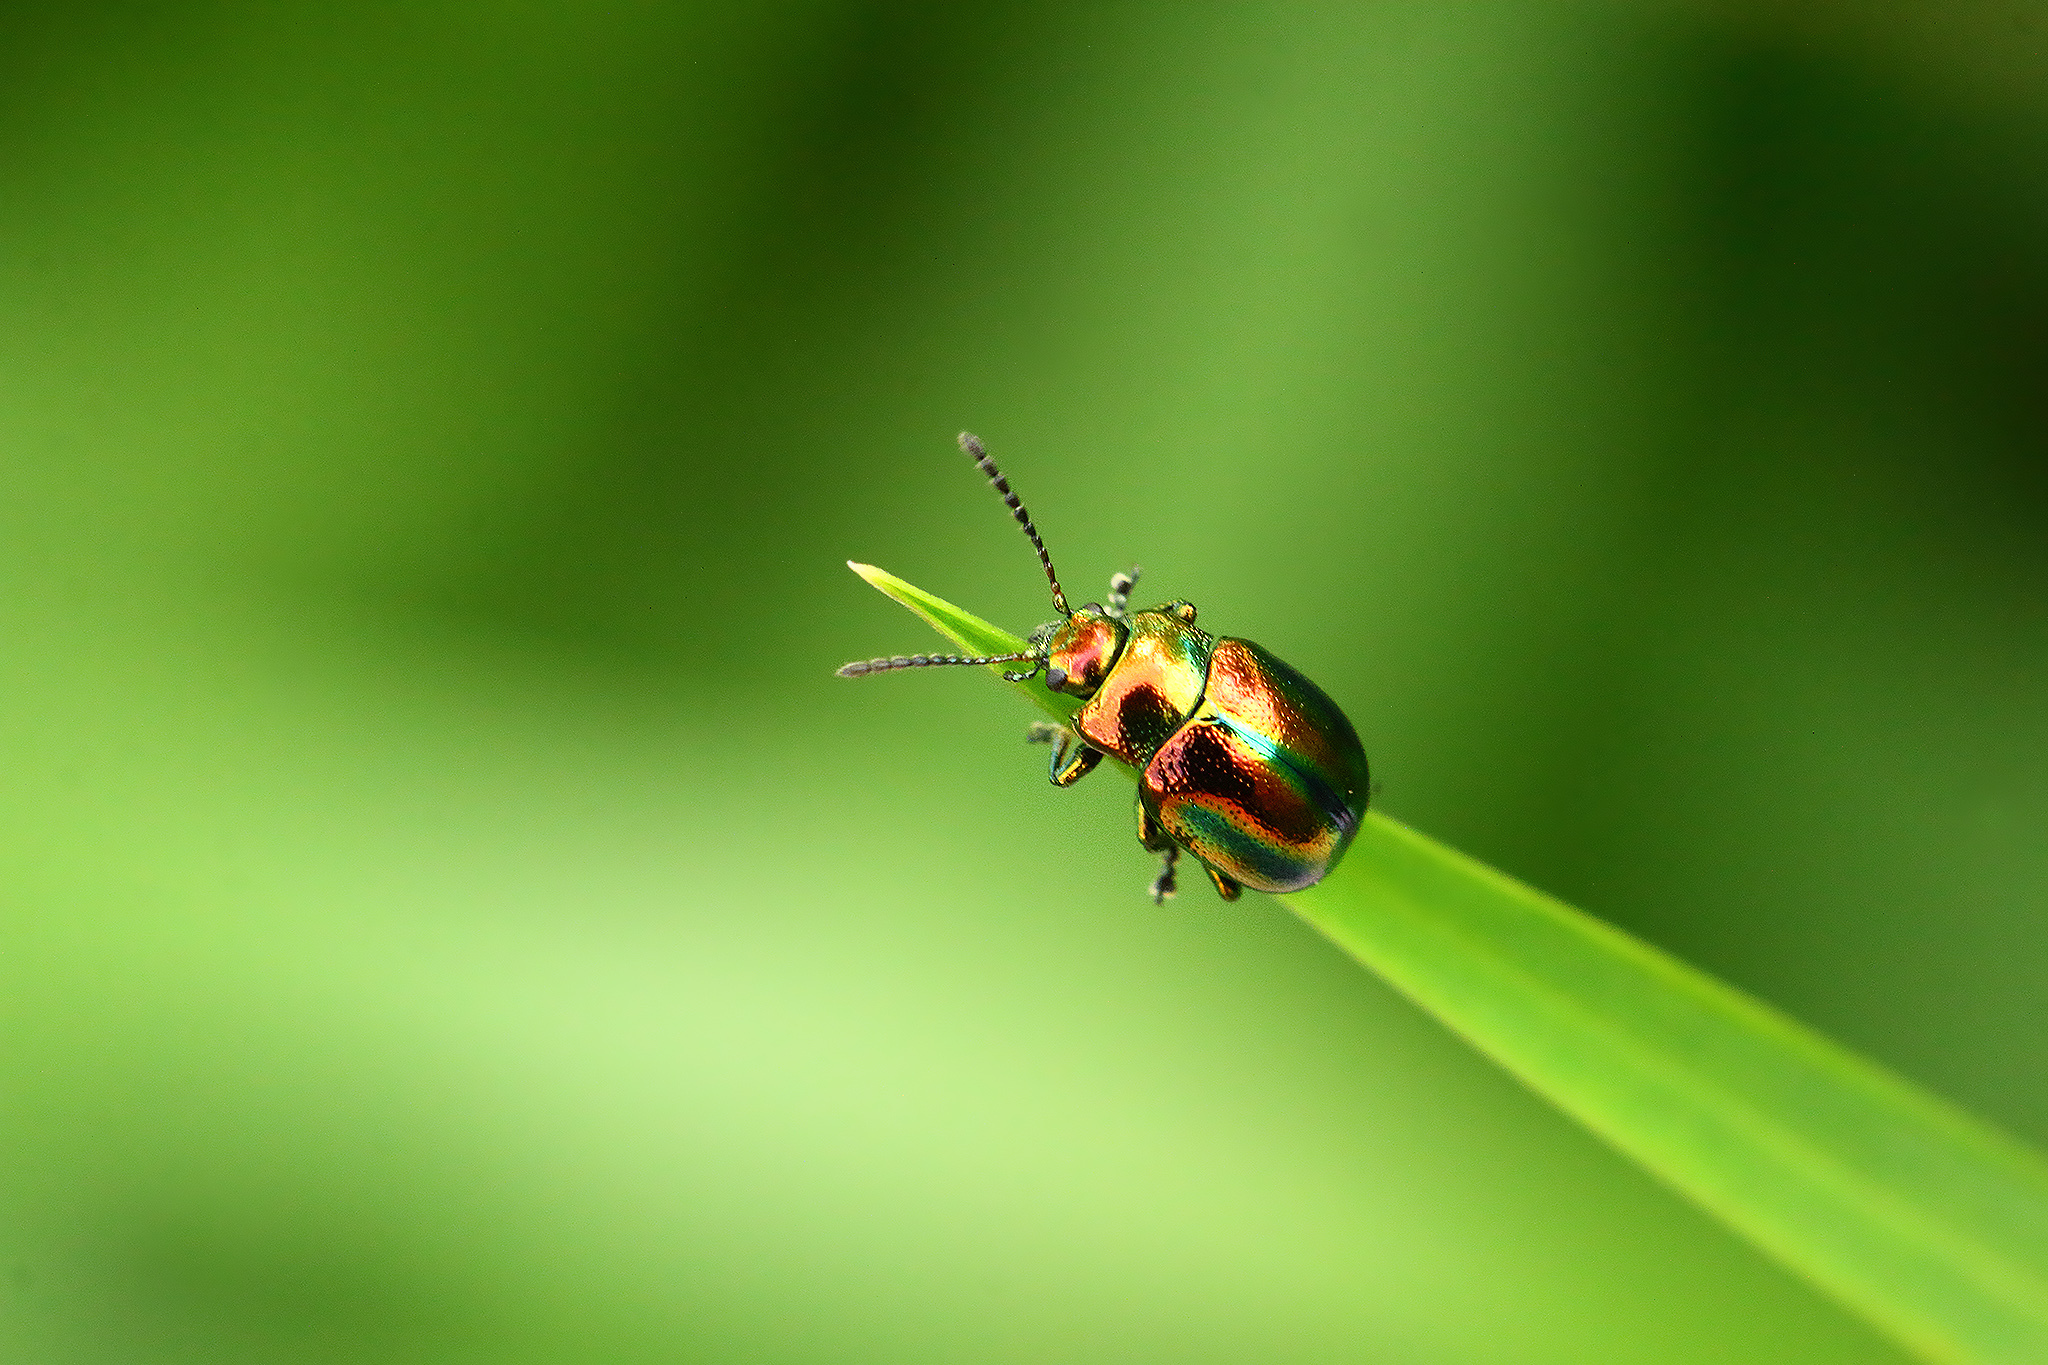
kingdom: Animalia
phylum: Arthropoda
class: Insecta
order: Coleoptera
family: Chrysomelidae
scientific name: Chrysomelidae
